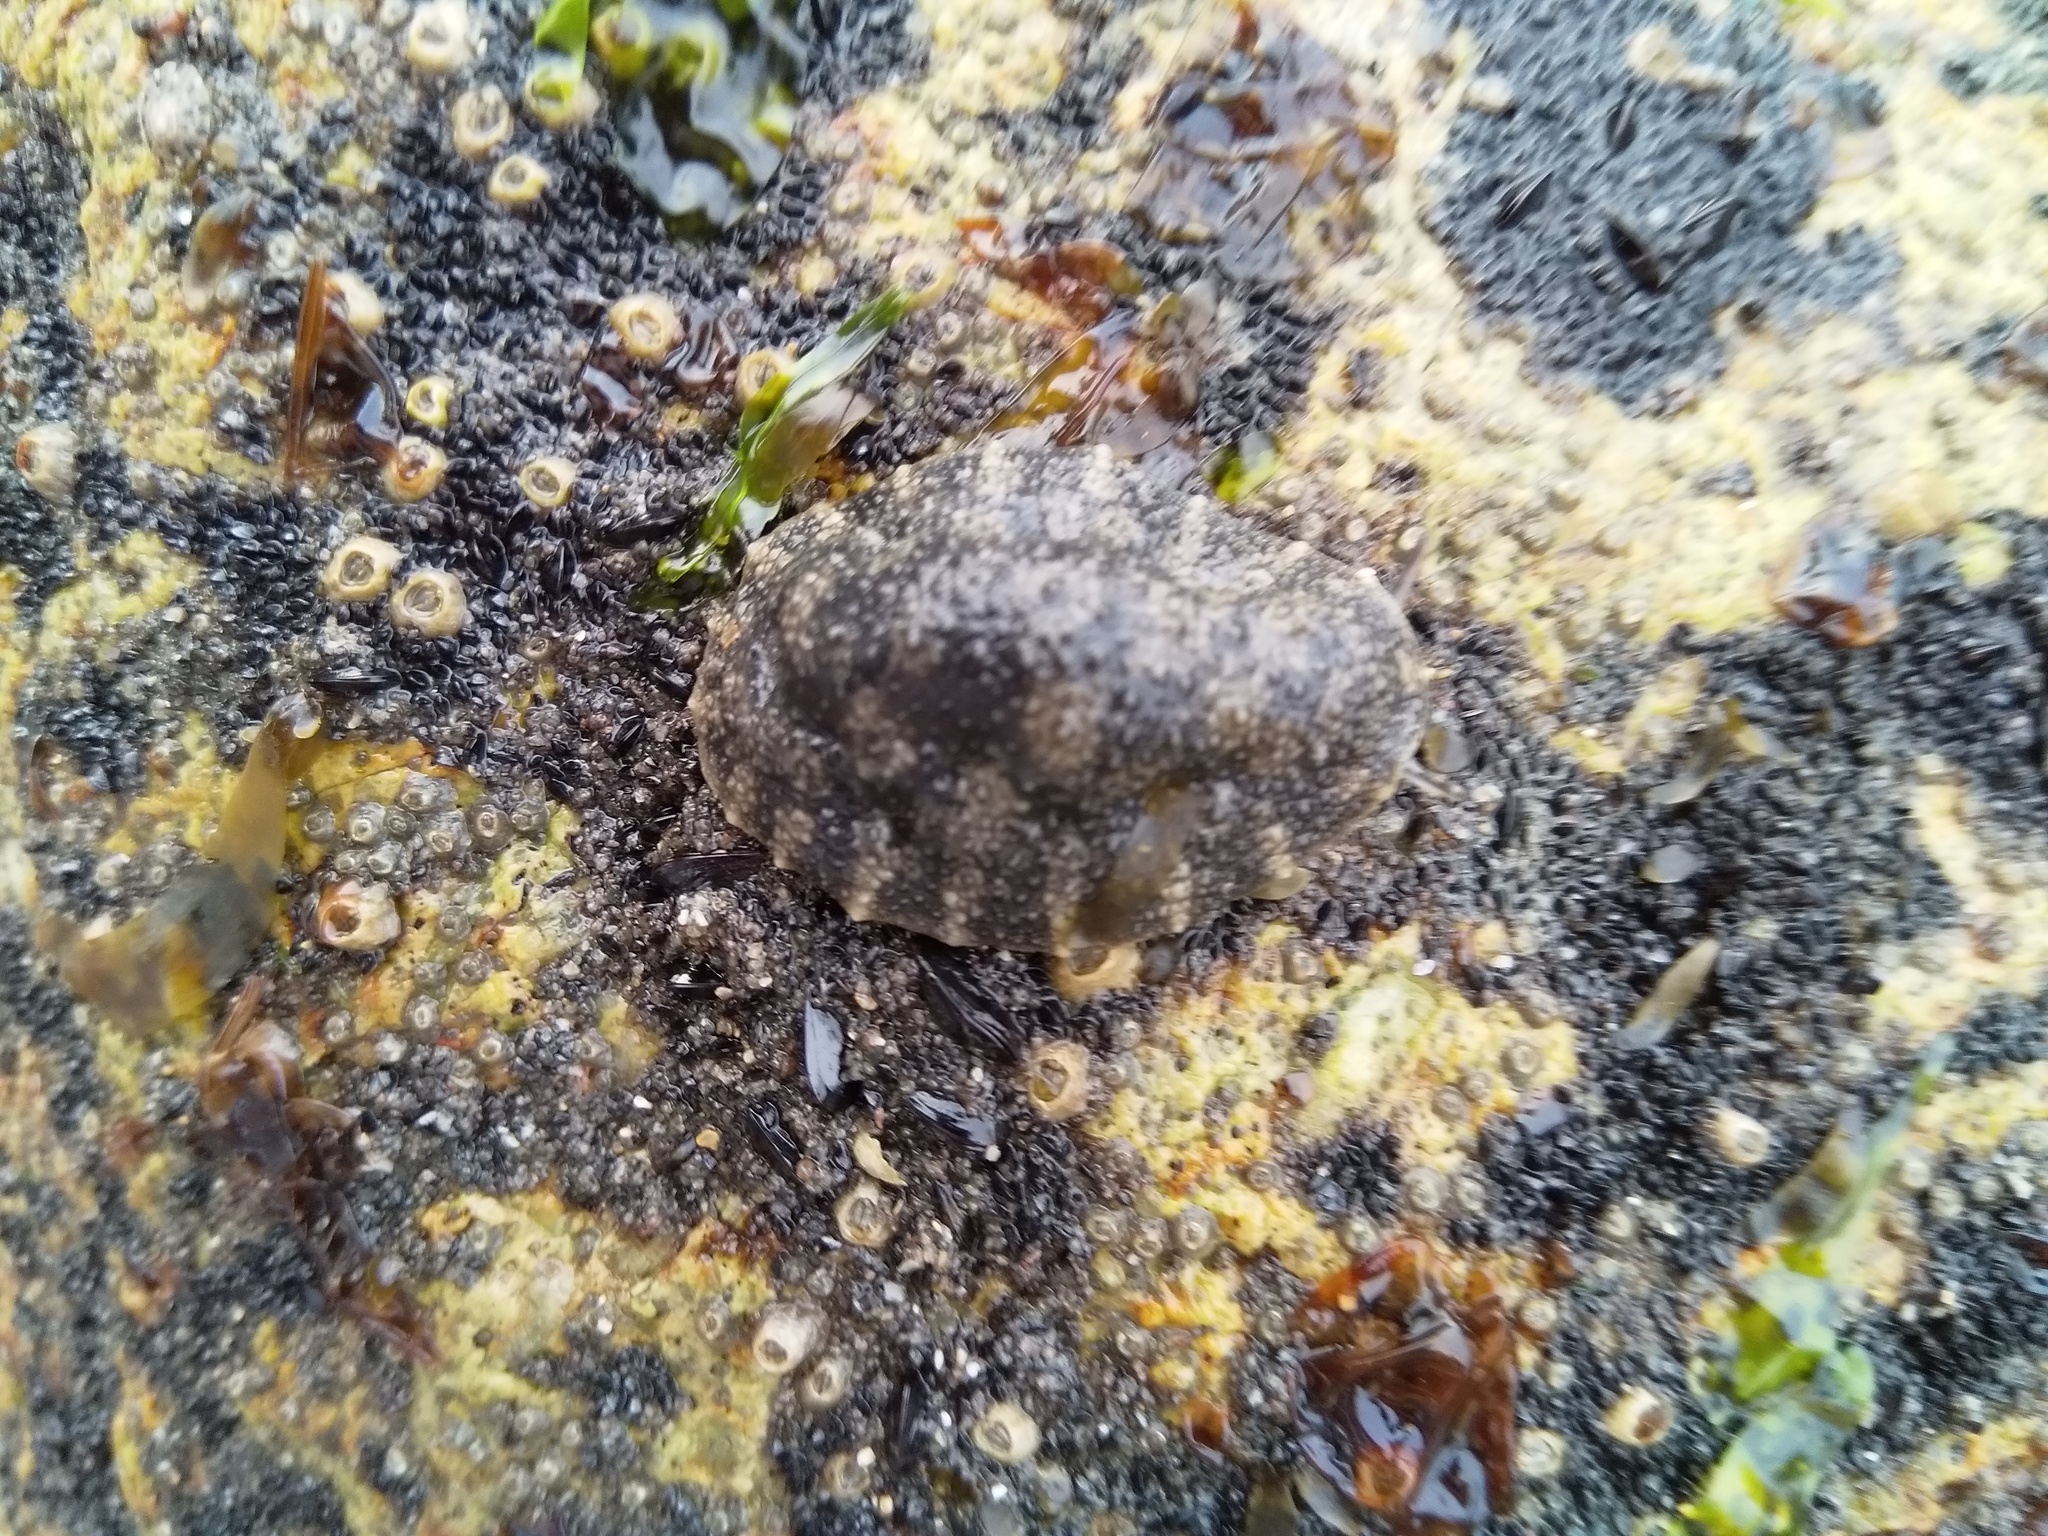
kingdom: Animalia
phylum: Mollusca
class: Gastropoda
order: Systellommatophora
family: Onchidiidae
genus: Onchidella
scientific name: Onchidella nigricans
